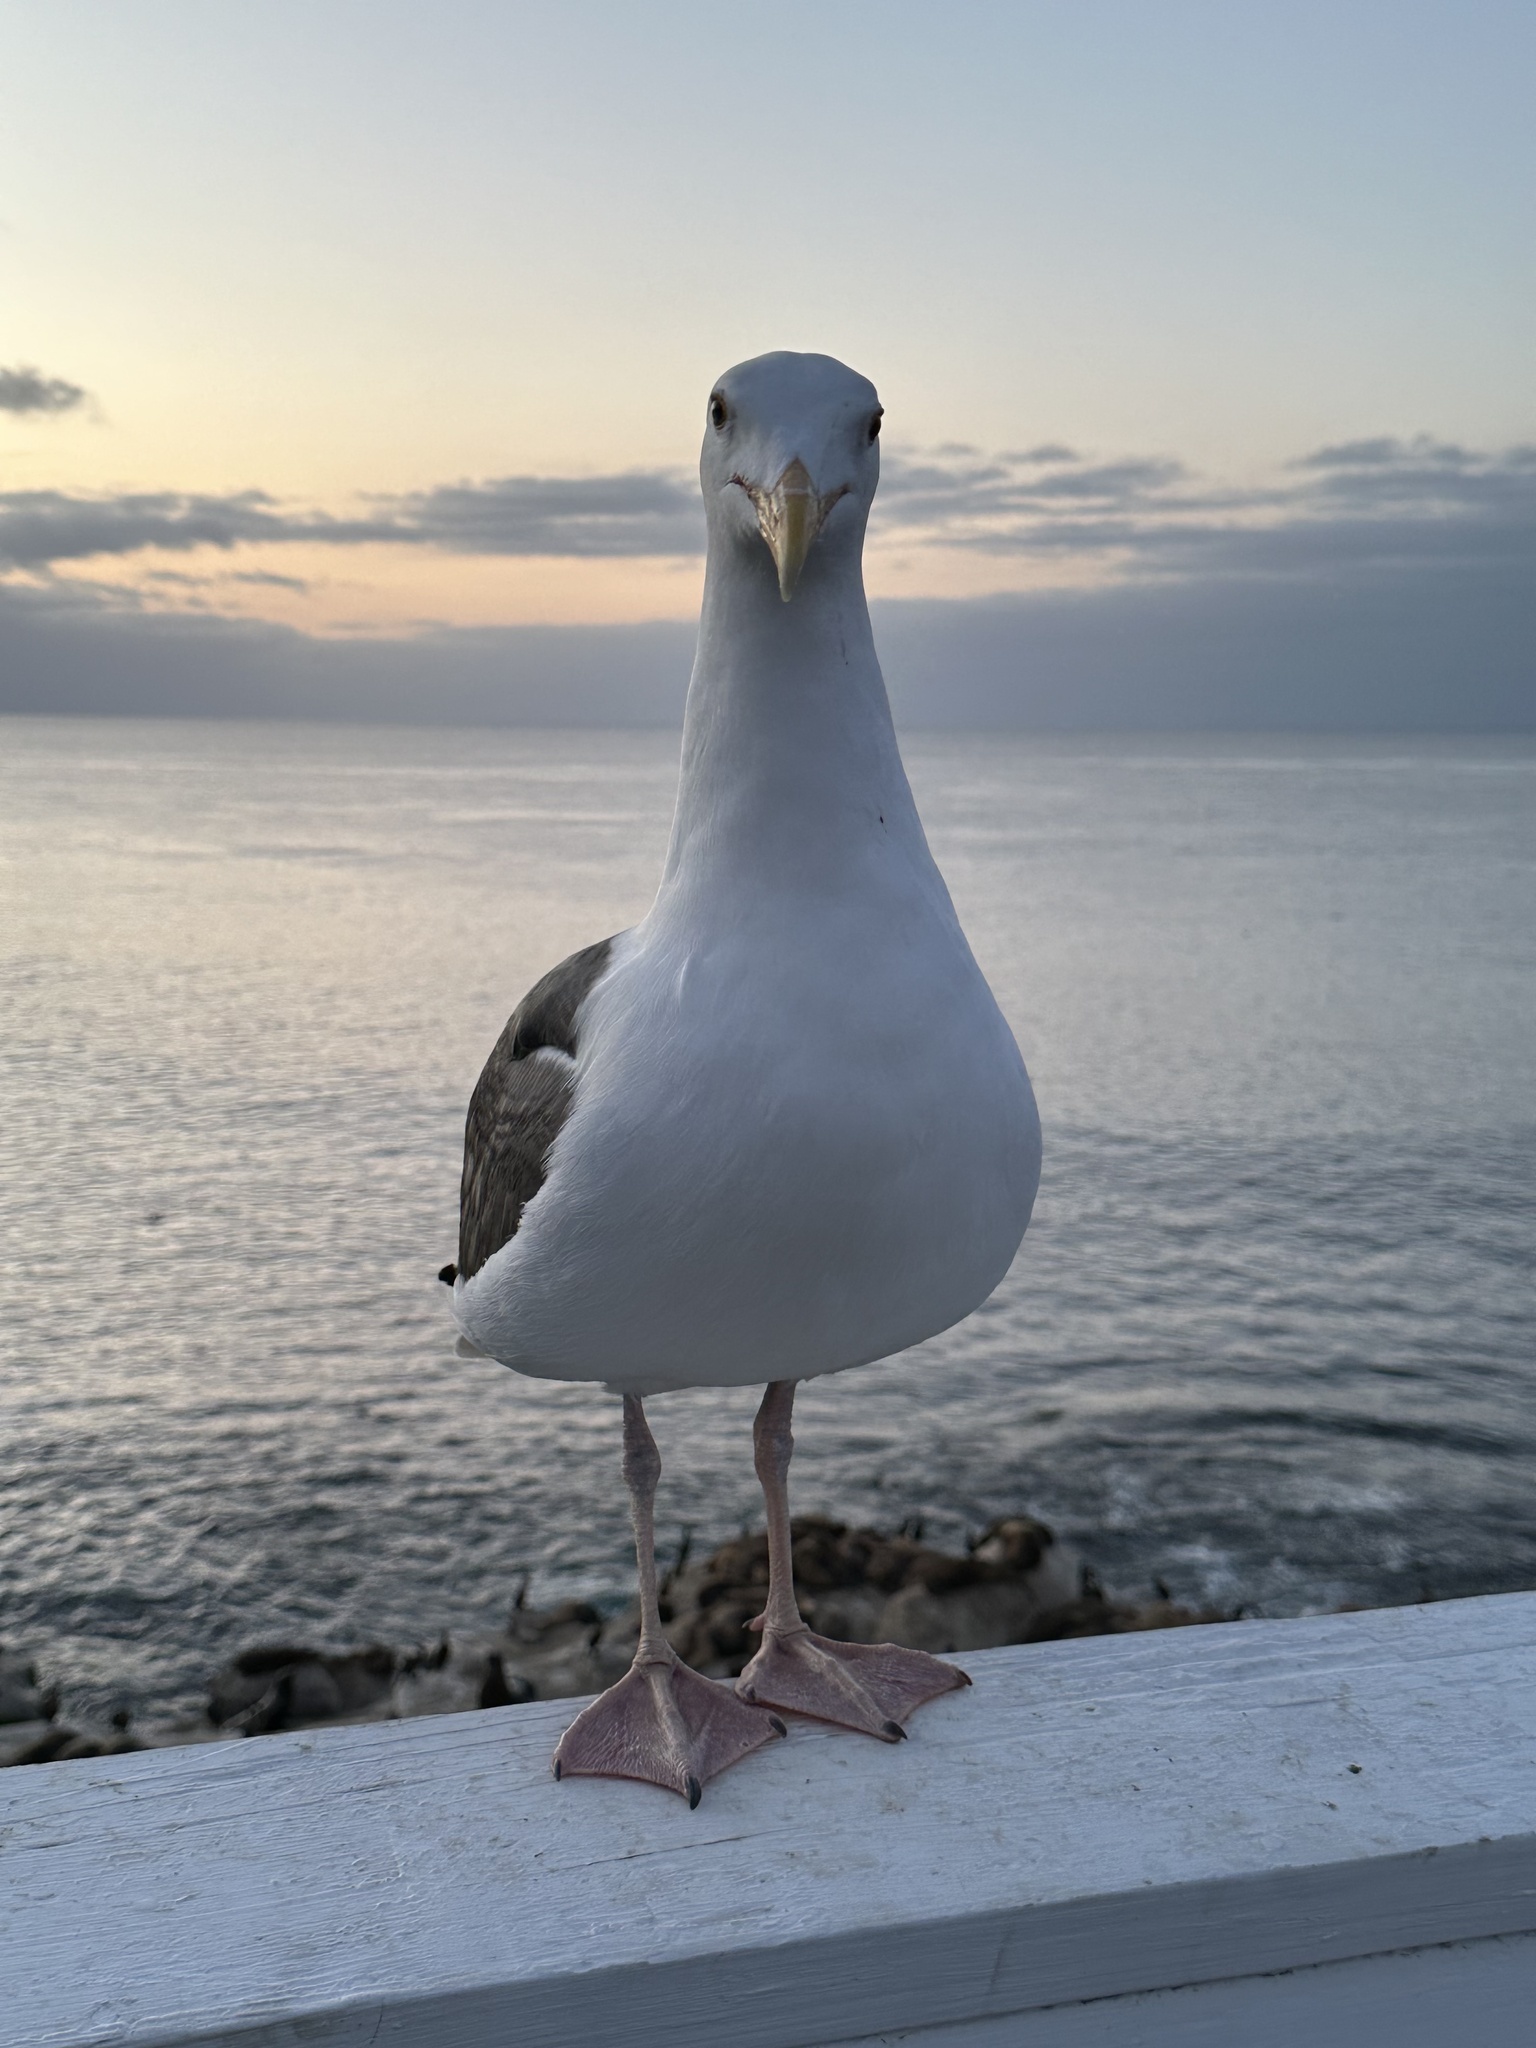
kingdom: Animalia
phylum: Chordata
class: Aves
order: Charadriiformes
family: Laridae
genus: Larus
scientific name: Larus occidentalis
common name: Western gull
